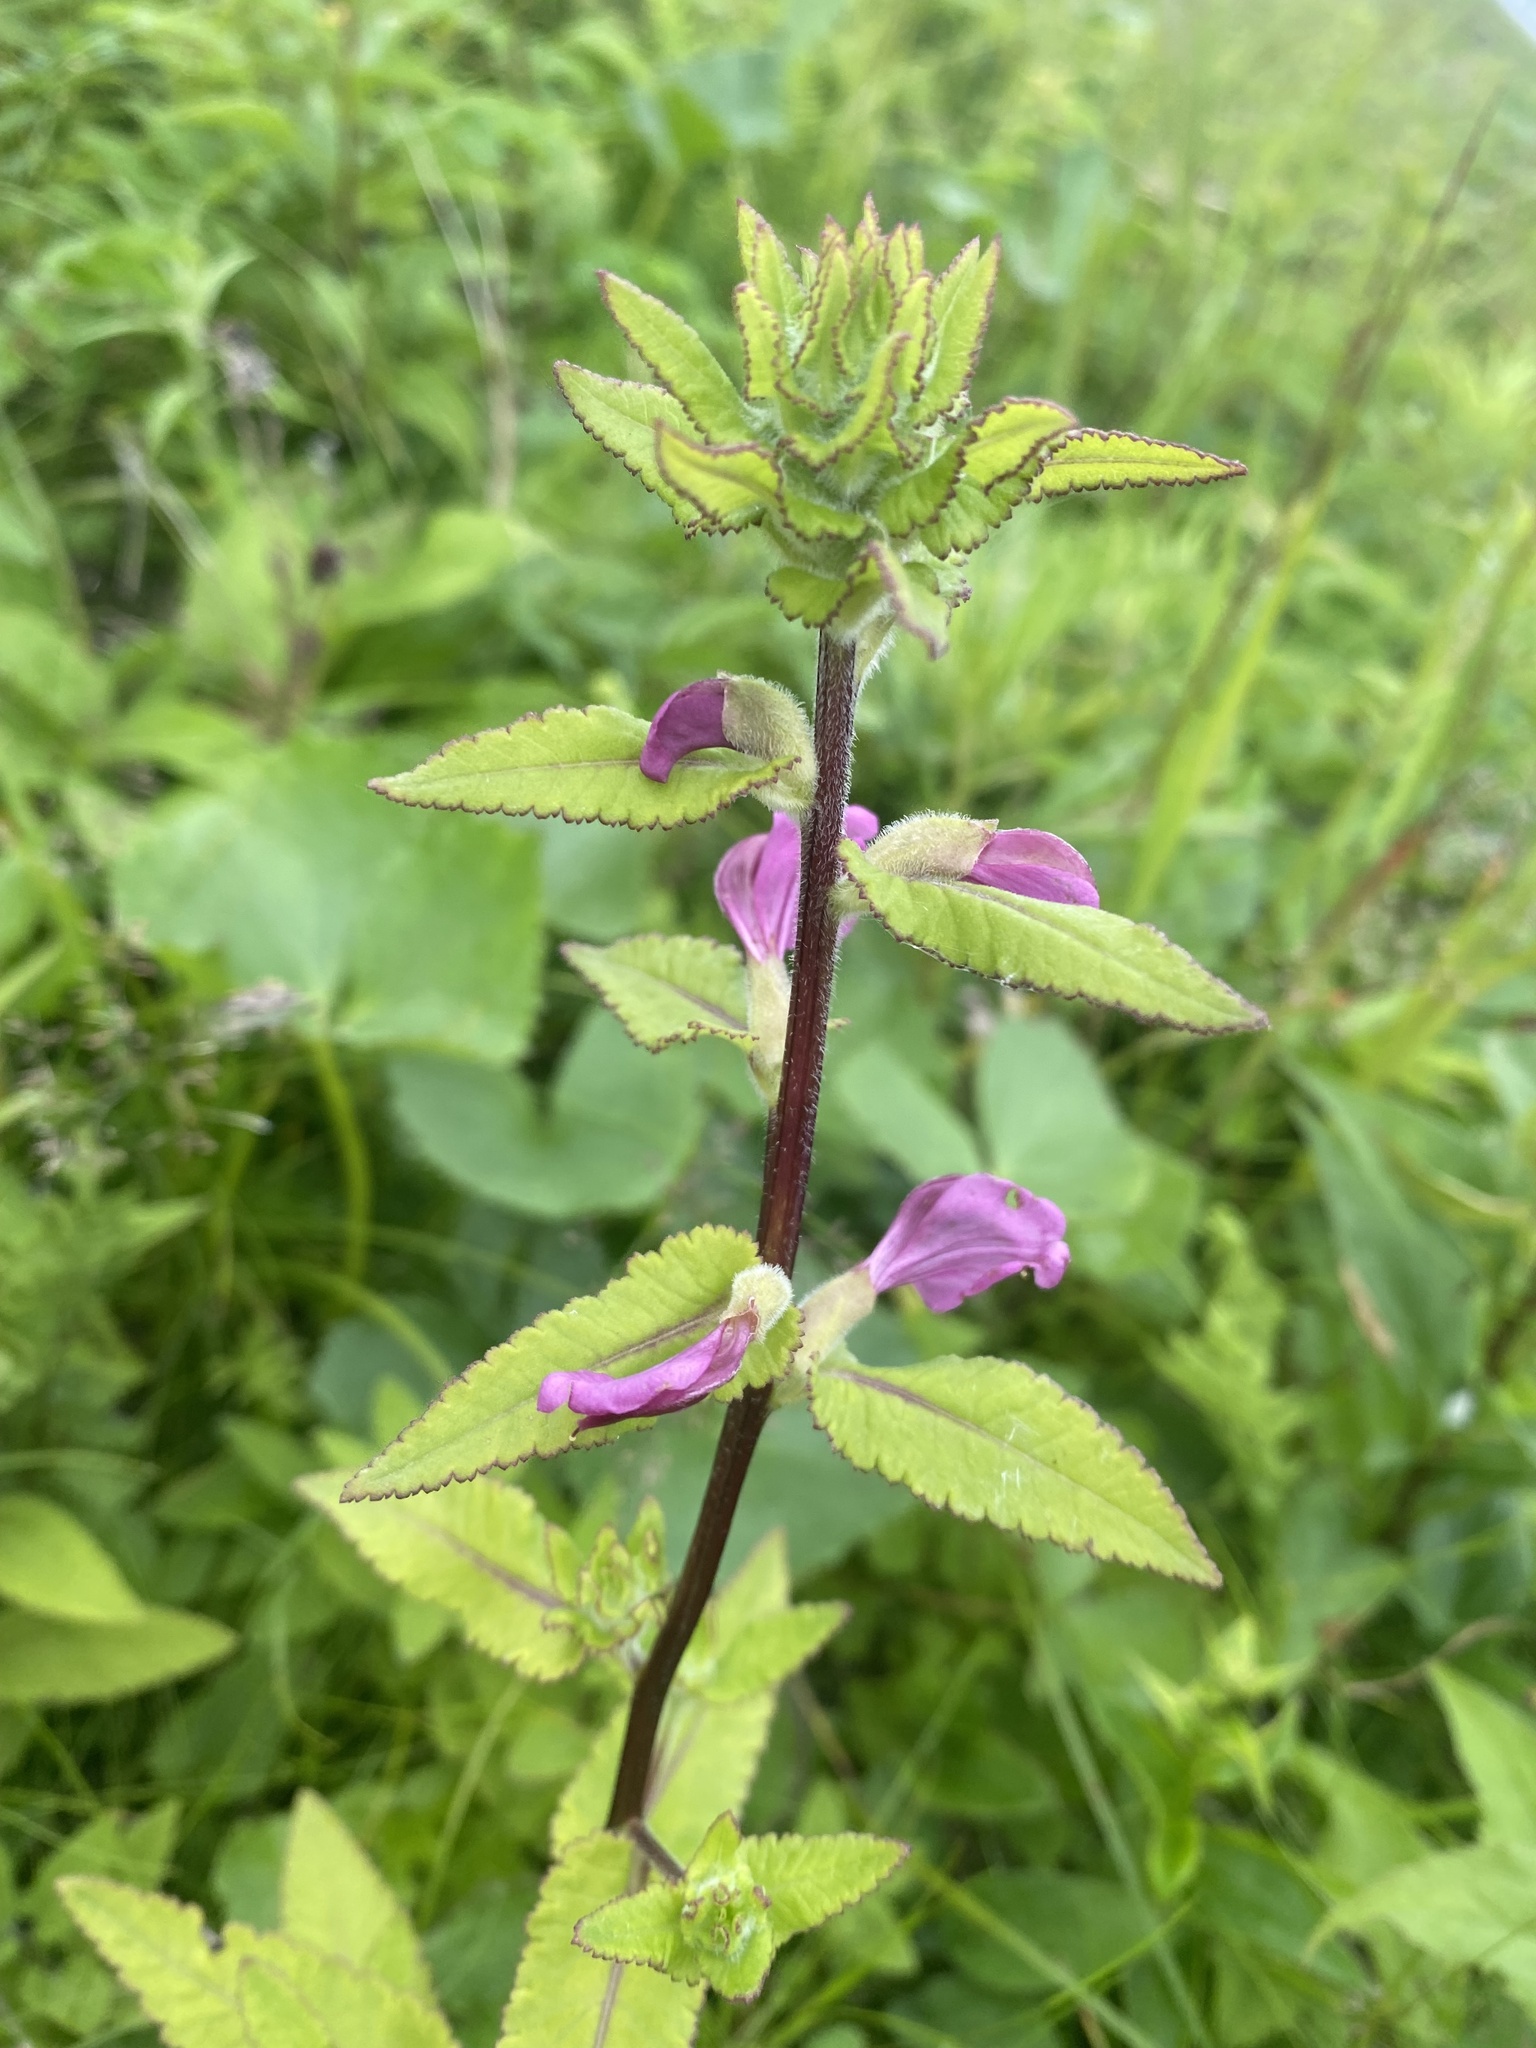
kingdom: Plantae
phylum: Tracheophyta
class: Magnoliopsida
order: Lamiales
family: Orobanchaceae
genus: Pedicularis
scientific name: Pedicularis resupinata
